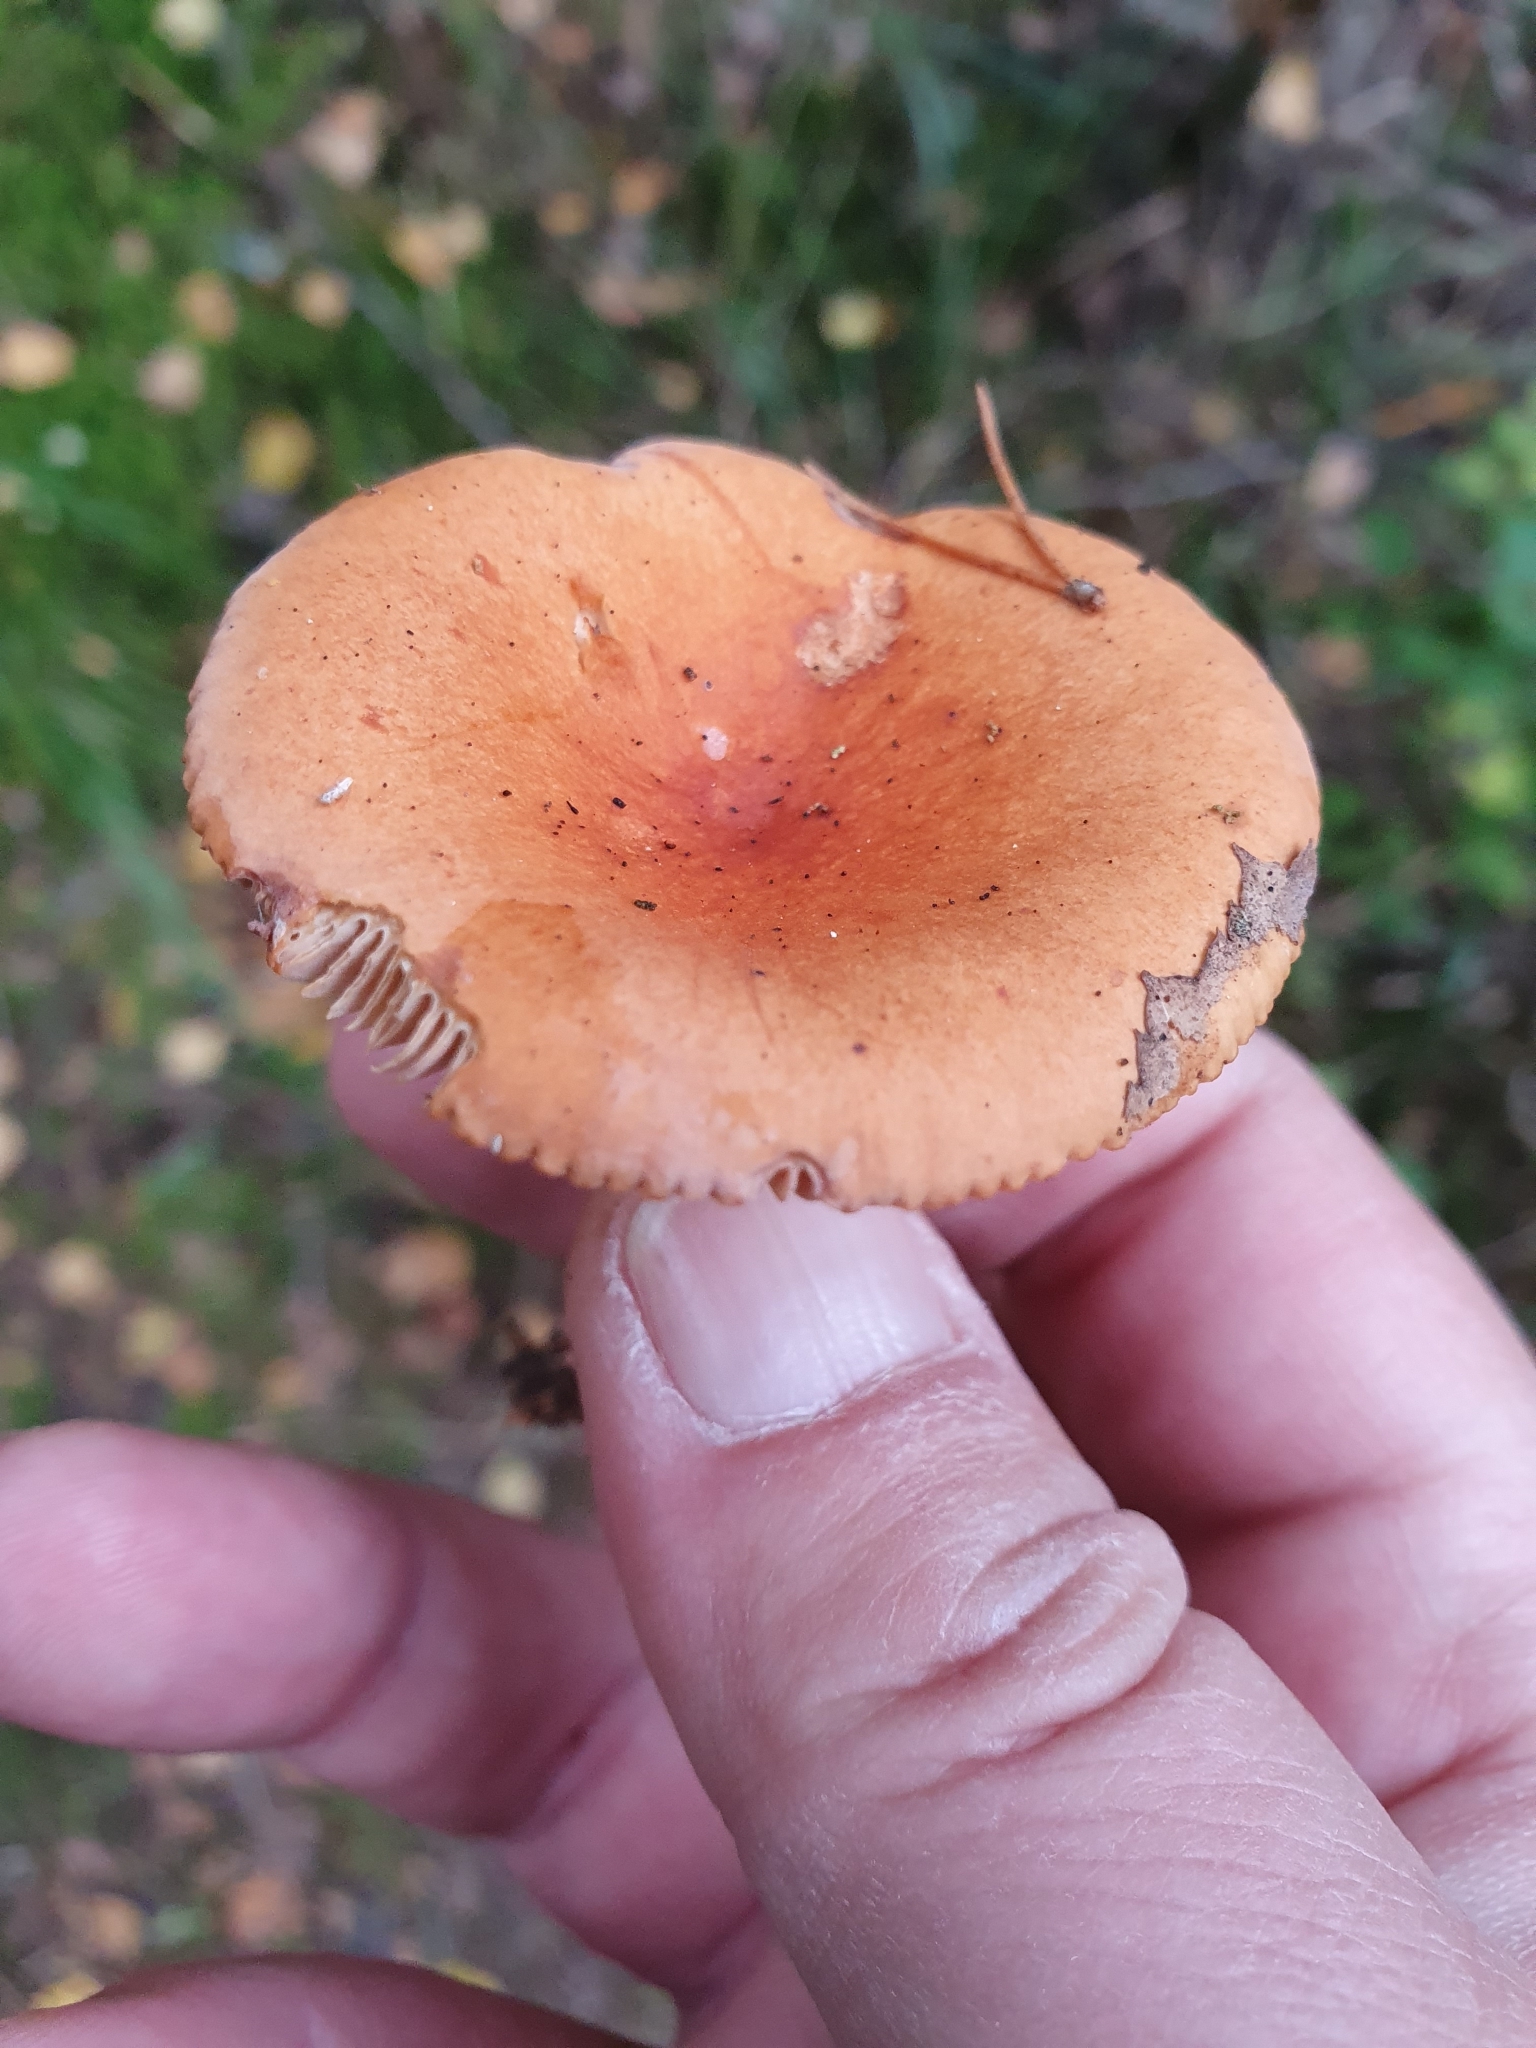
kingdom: Fungi
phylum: Basidiomycota
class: Agaricomycetes
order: Russulales
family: Russulaceae
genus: Lactarius
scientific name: Lactarius aurantiacus
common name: Orange milkcap
